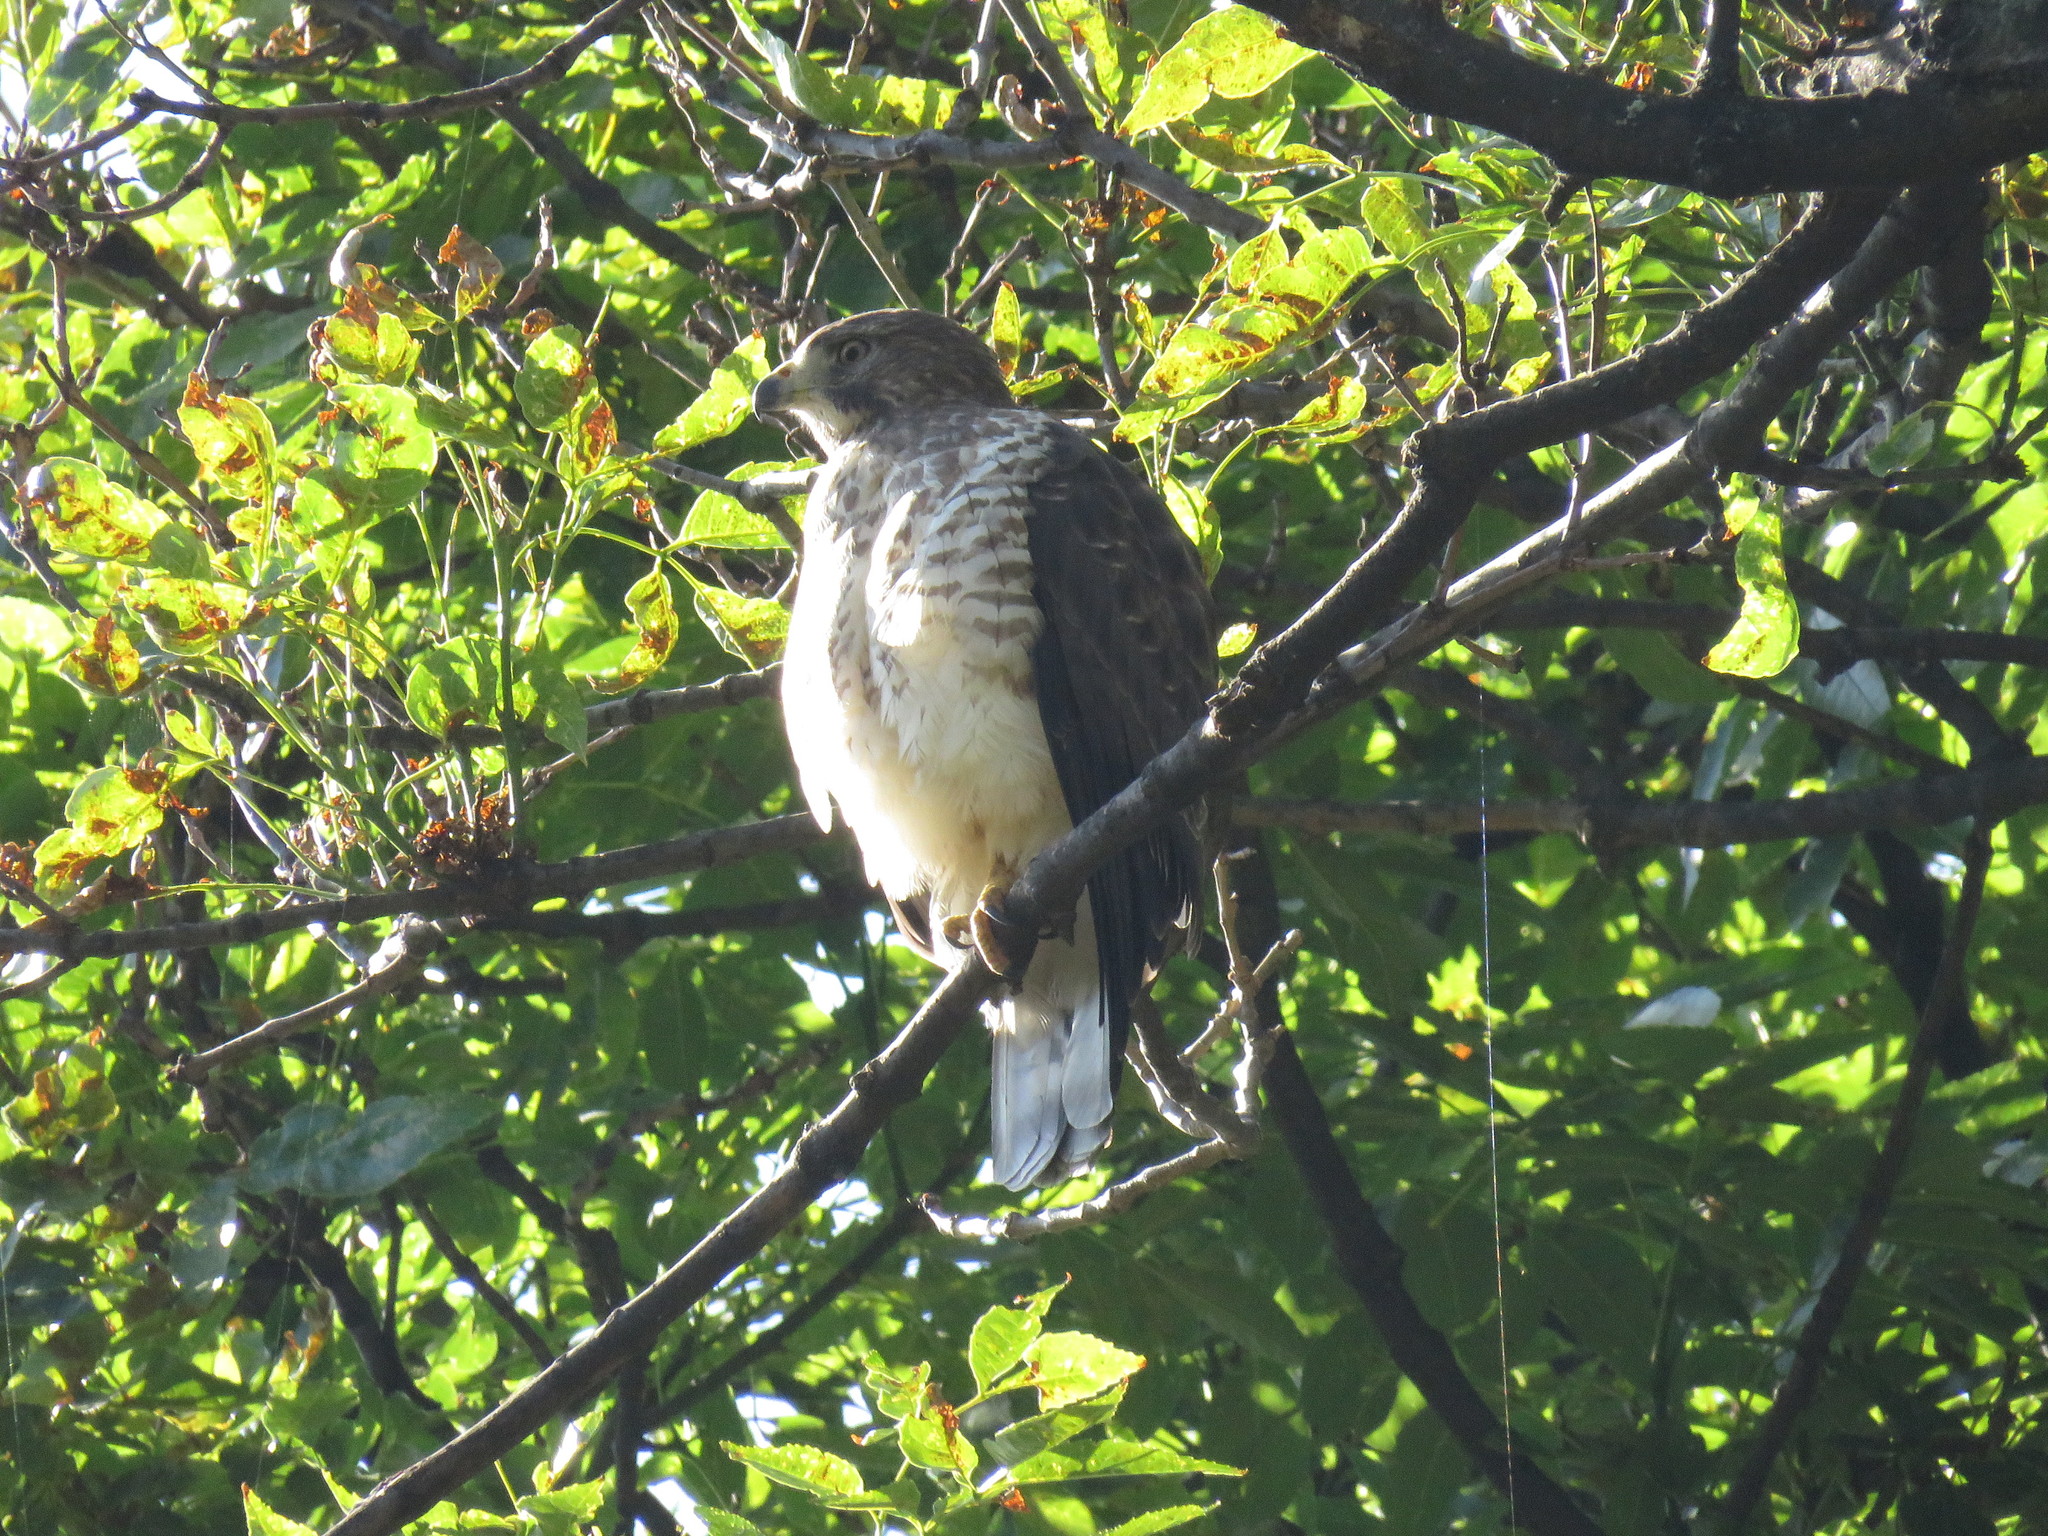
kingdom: Animalia
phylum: Chordata
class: Aves
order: Accipitriformes
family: Accipitridae
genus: Buteo
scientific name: Buteo platypterus
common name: Broad-winged hawk
